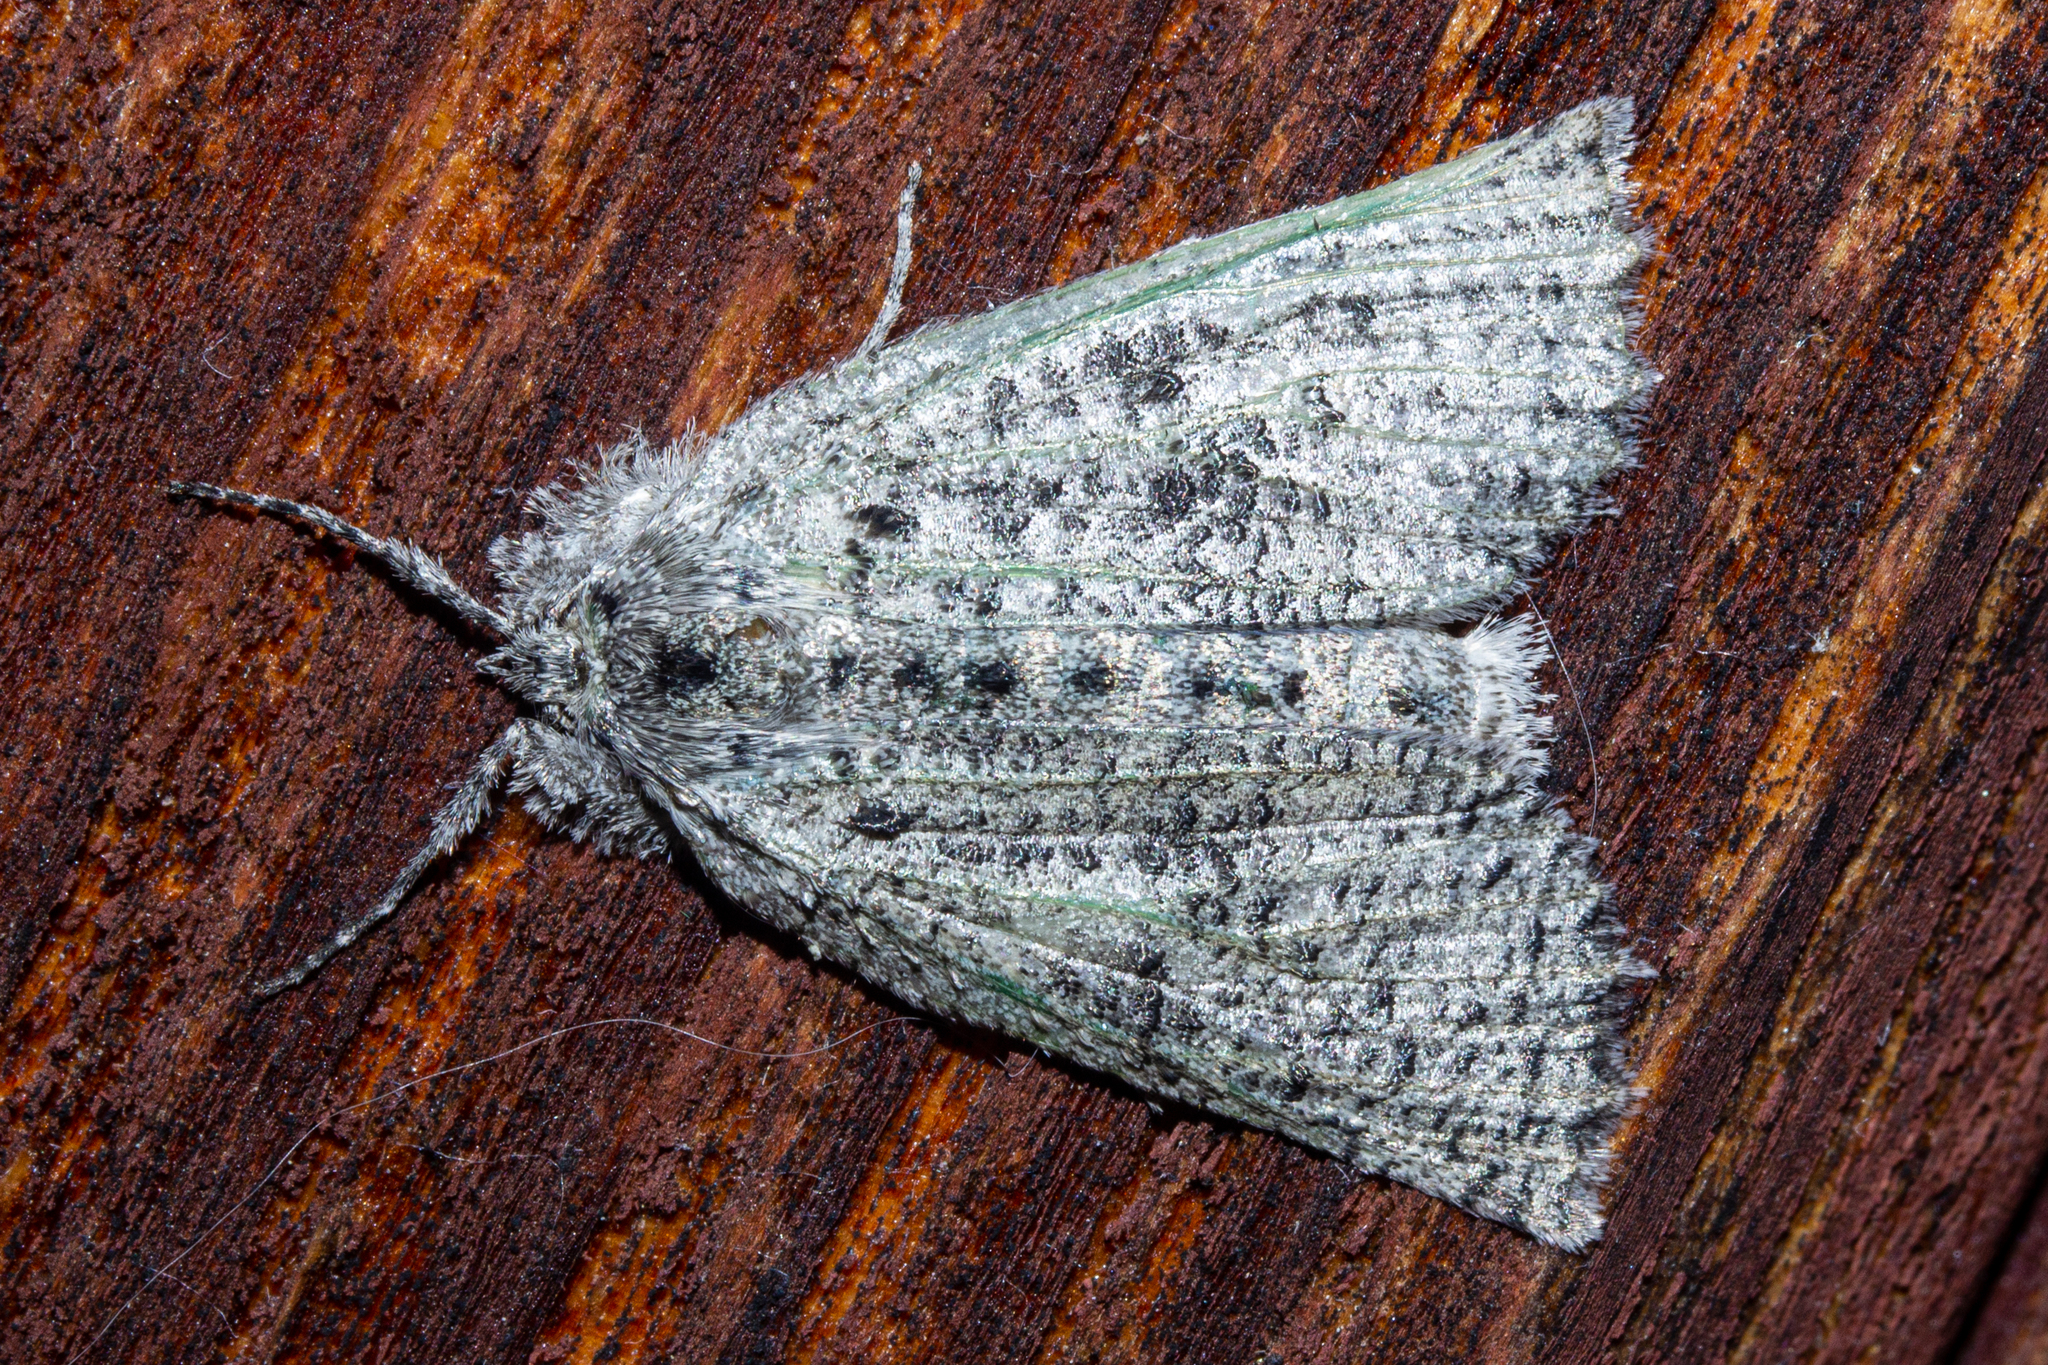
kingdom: Animalia
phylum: Arthropoda
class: Insecta
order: Lepidoptera
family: Geometridae
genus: Declana
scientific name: Declana floccosa
